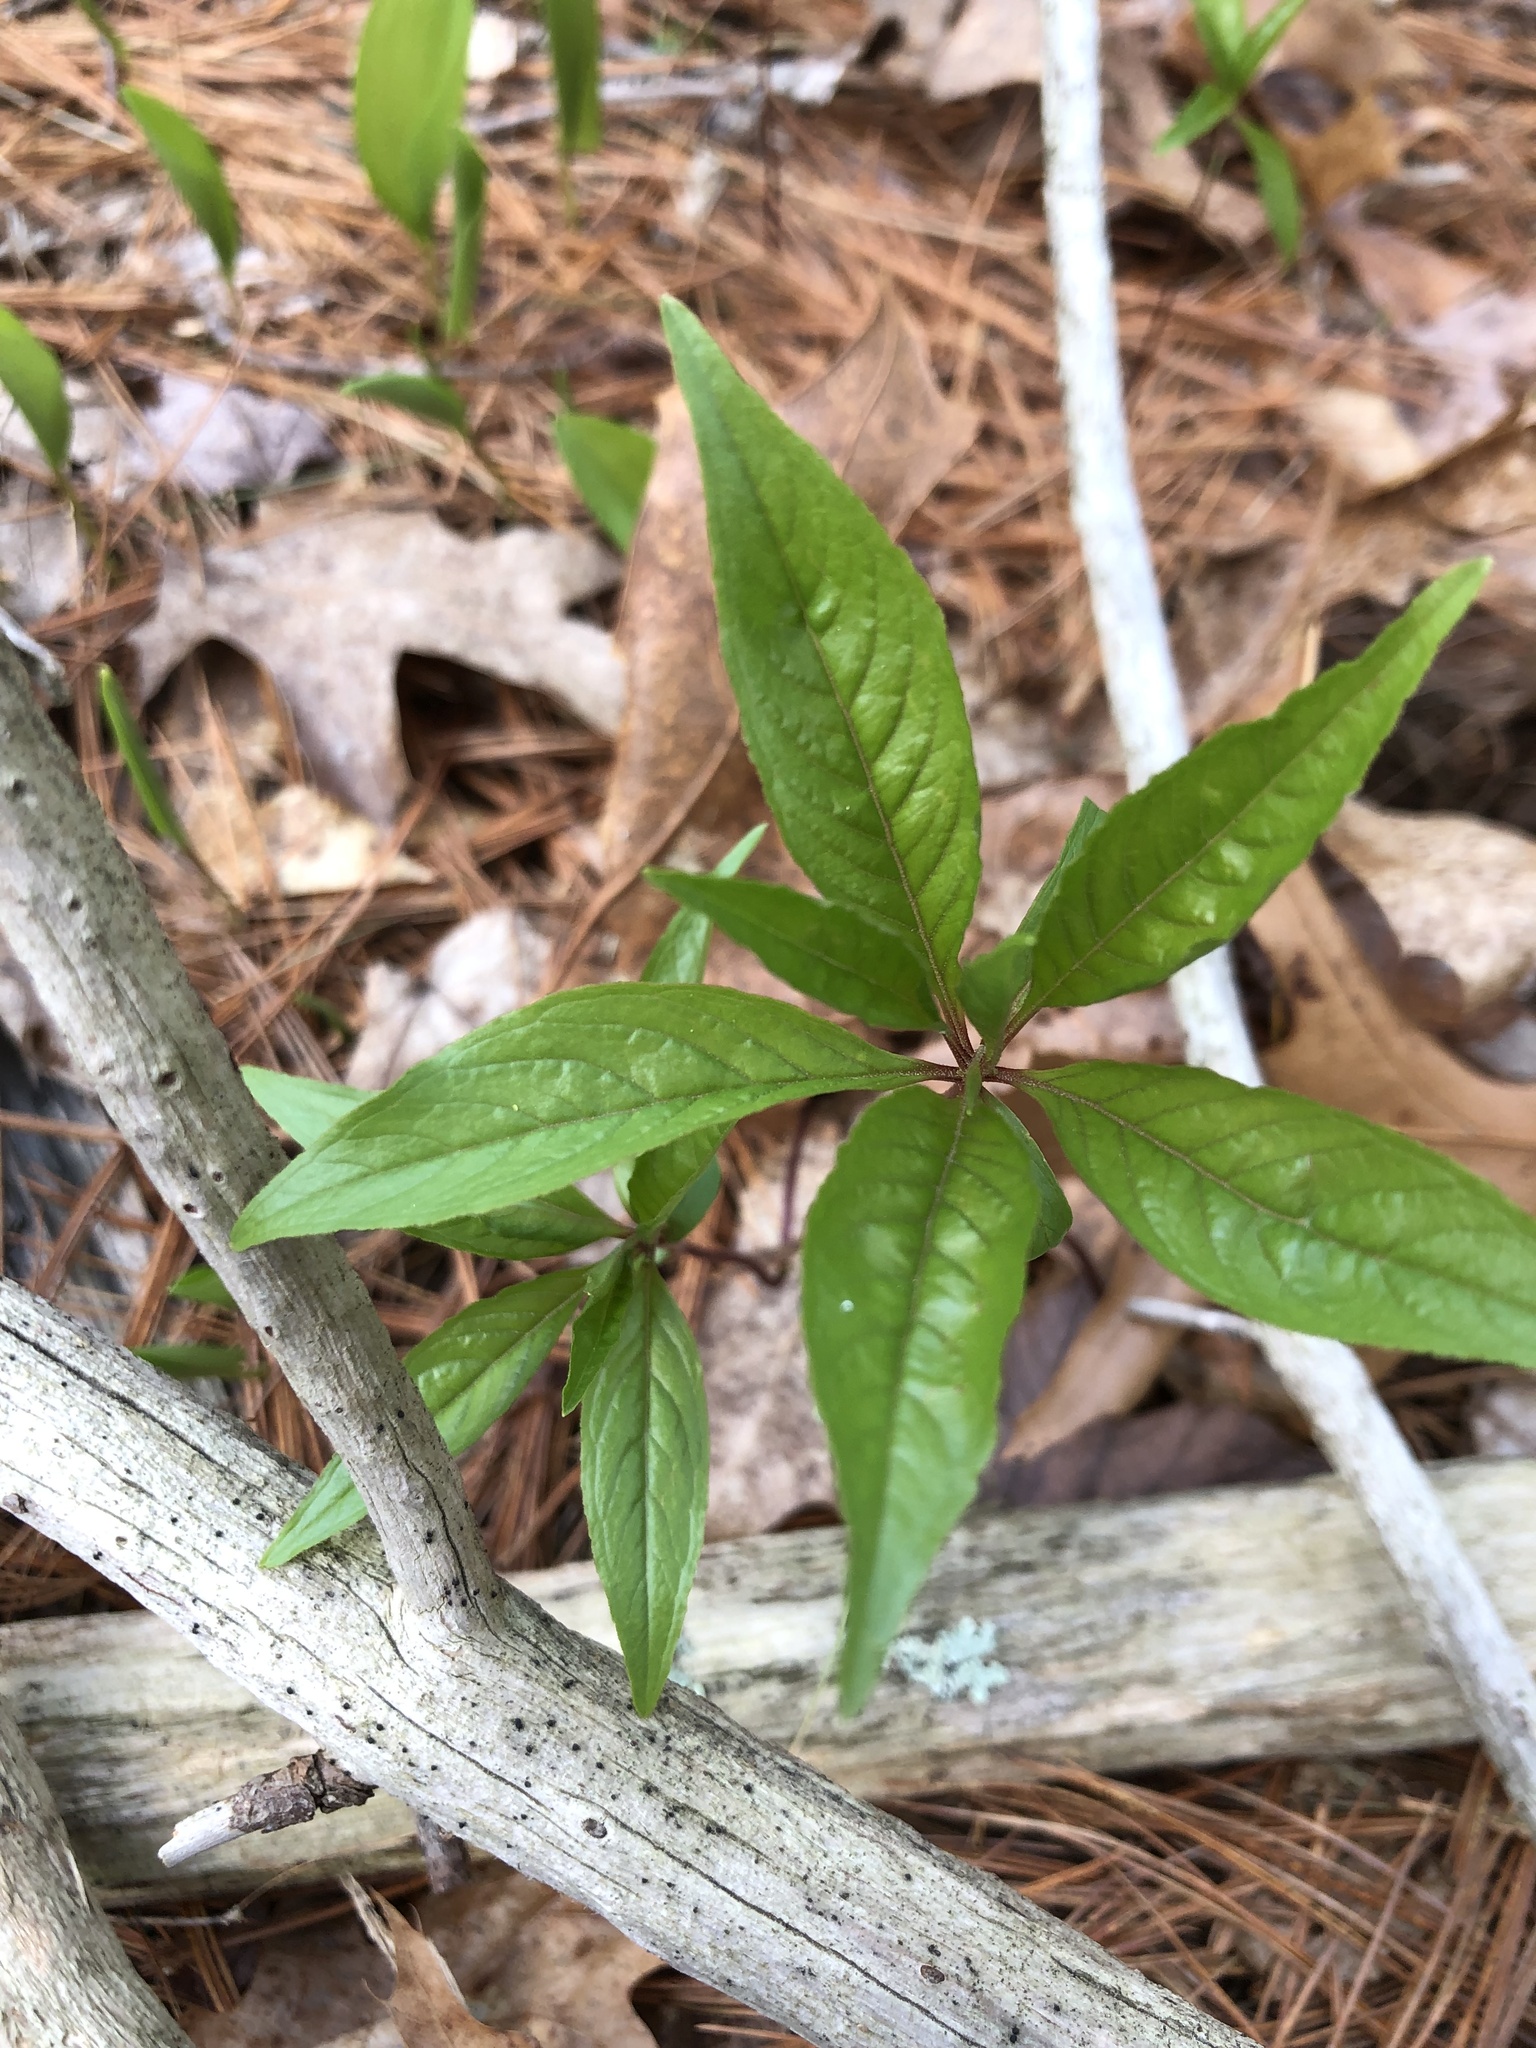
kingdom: Plantae
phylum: Tracheophyta
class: Magnoliopsida
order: Ericales
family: Primulaceae
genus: Lysimachia
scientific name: Lysimachia borealis
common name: American starflower
